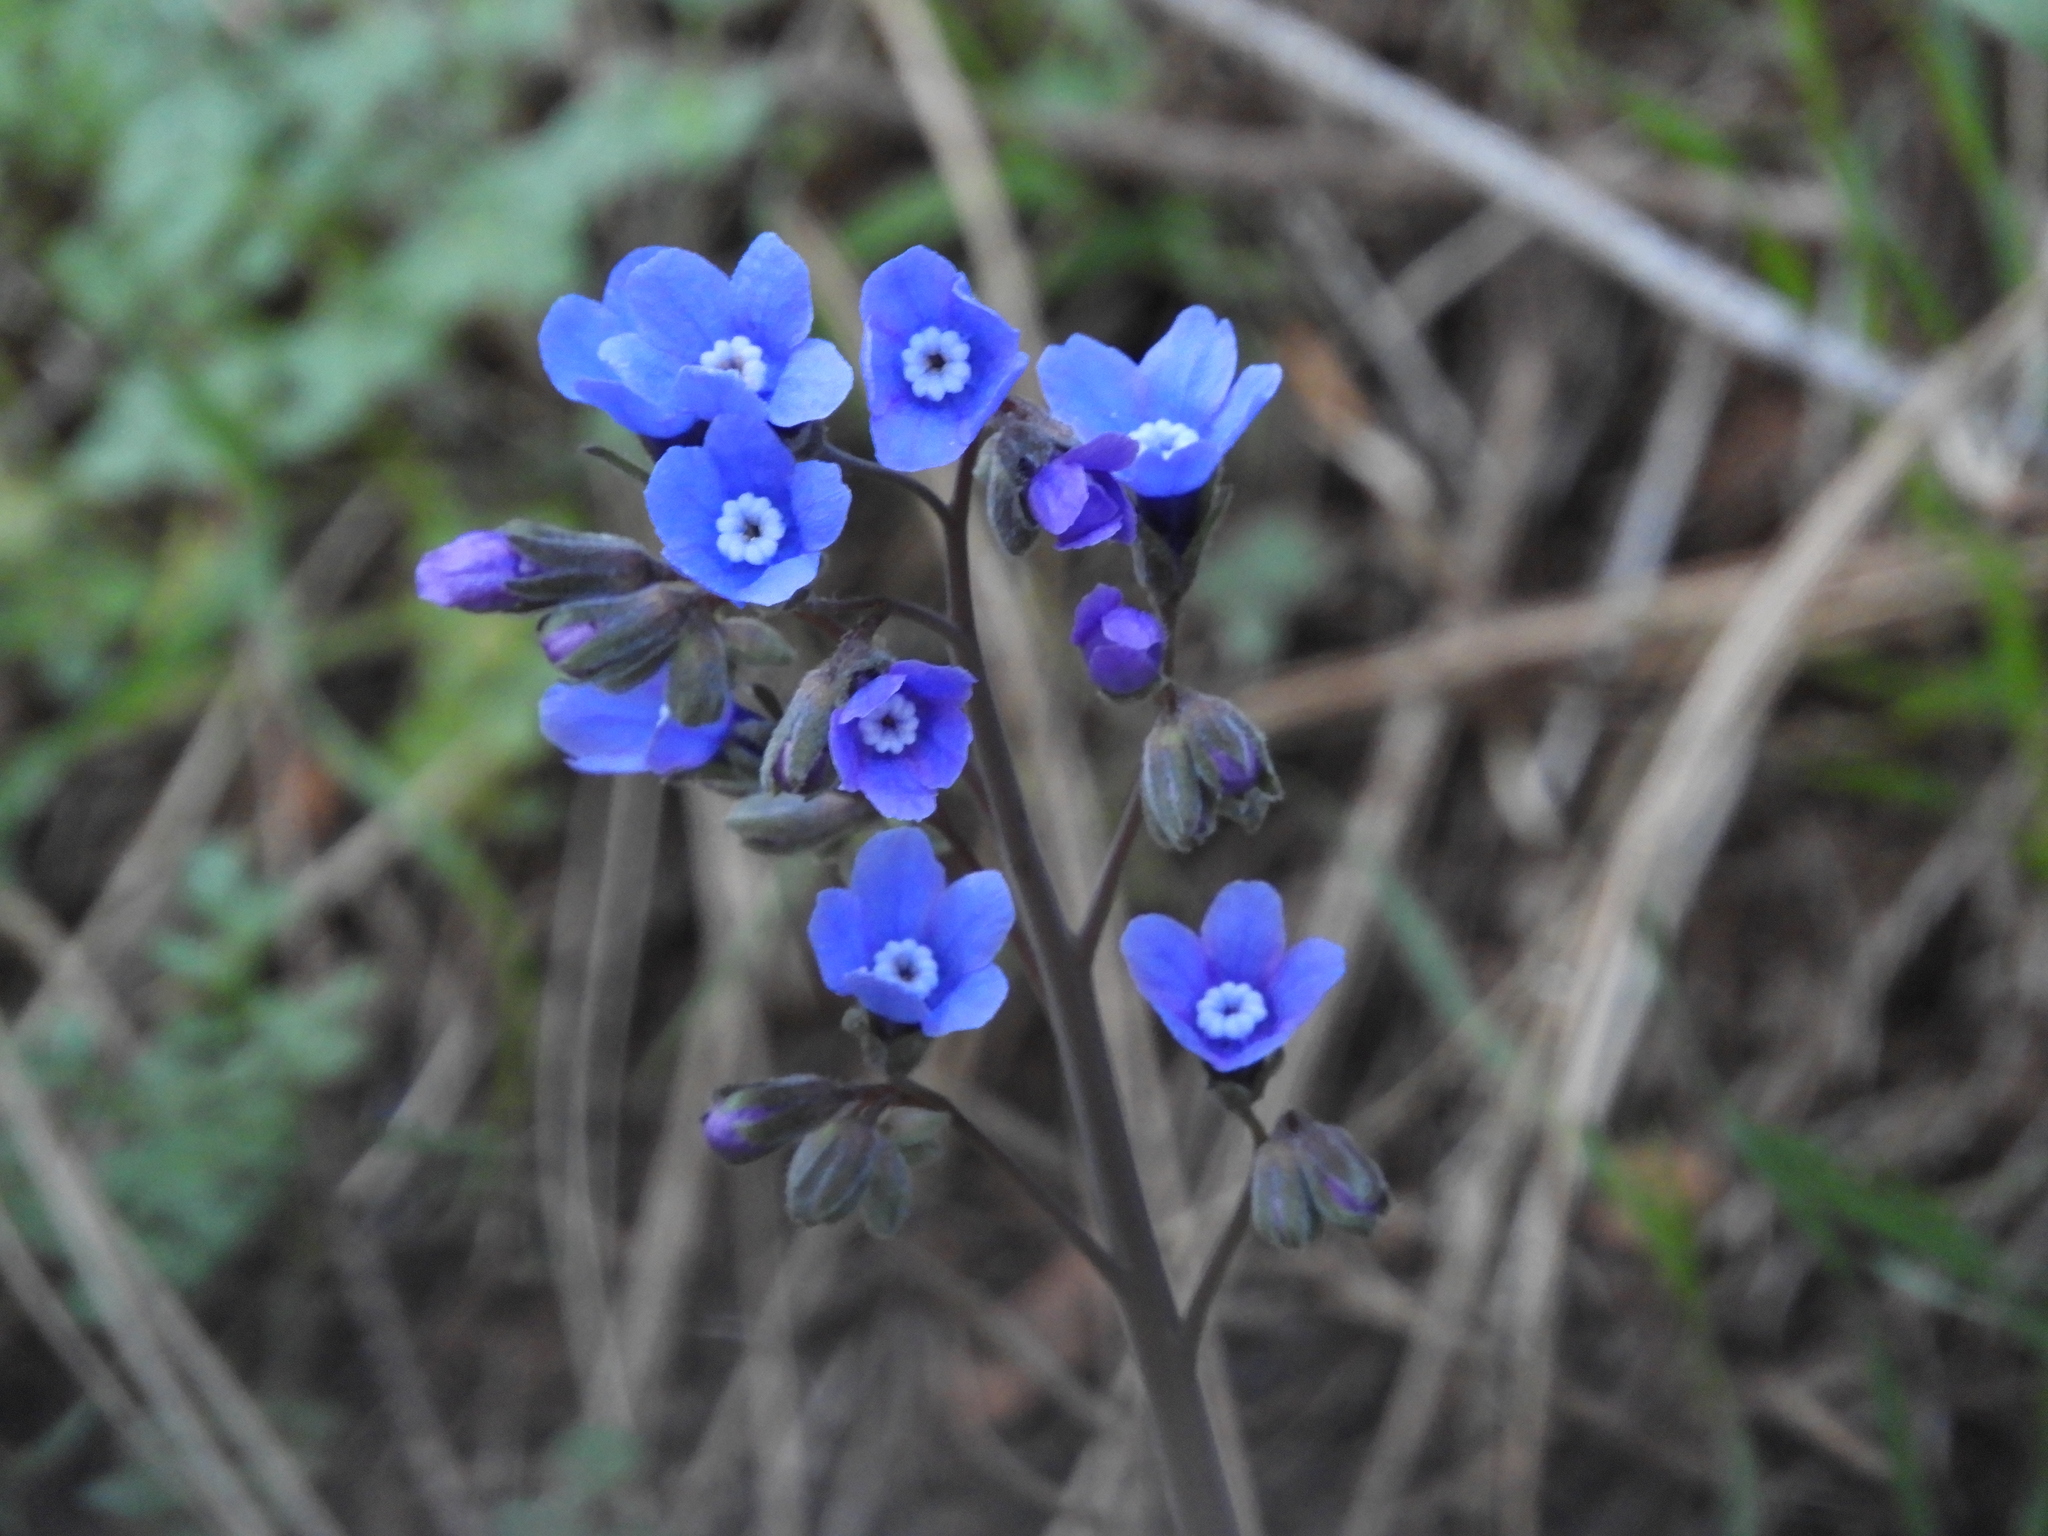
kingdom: Plantae
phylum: Tracheophyta
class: Magnoliopsida
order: Boraginales
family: Boraginaceae
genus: Adelinia
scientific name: Adelinia grande
